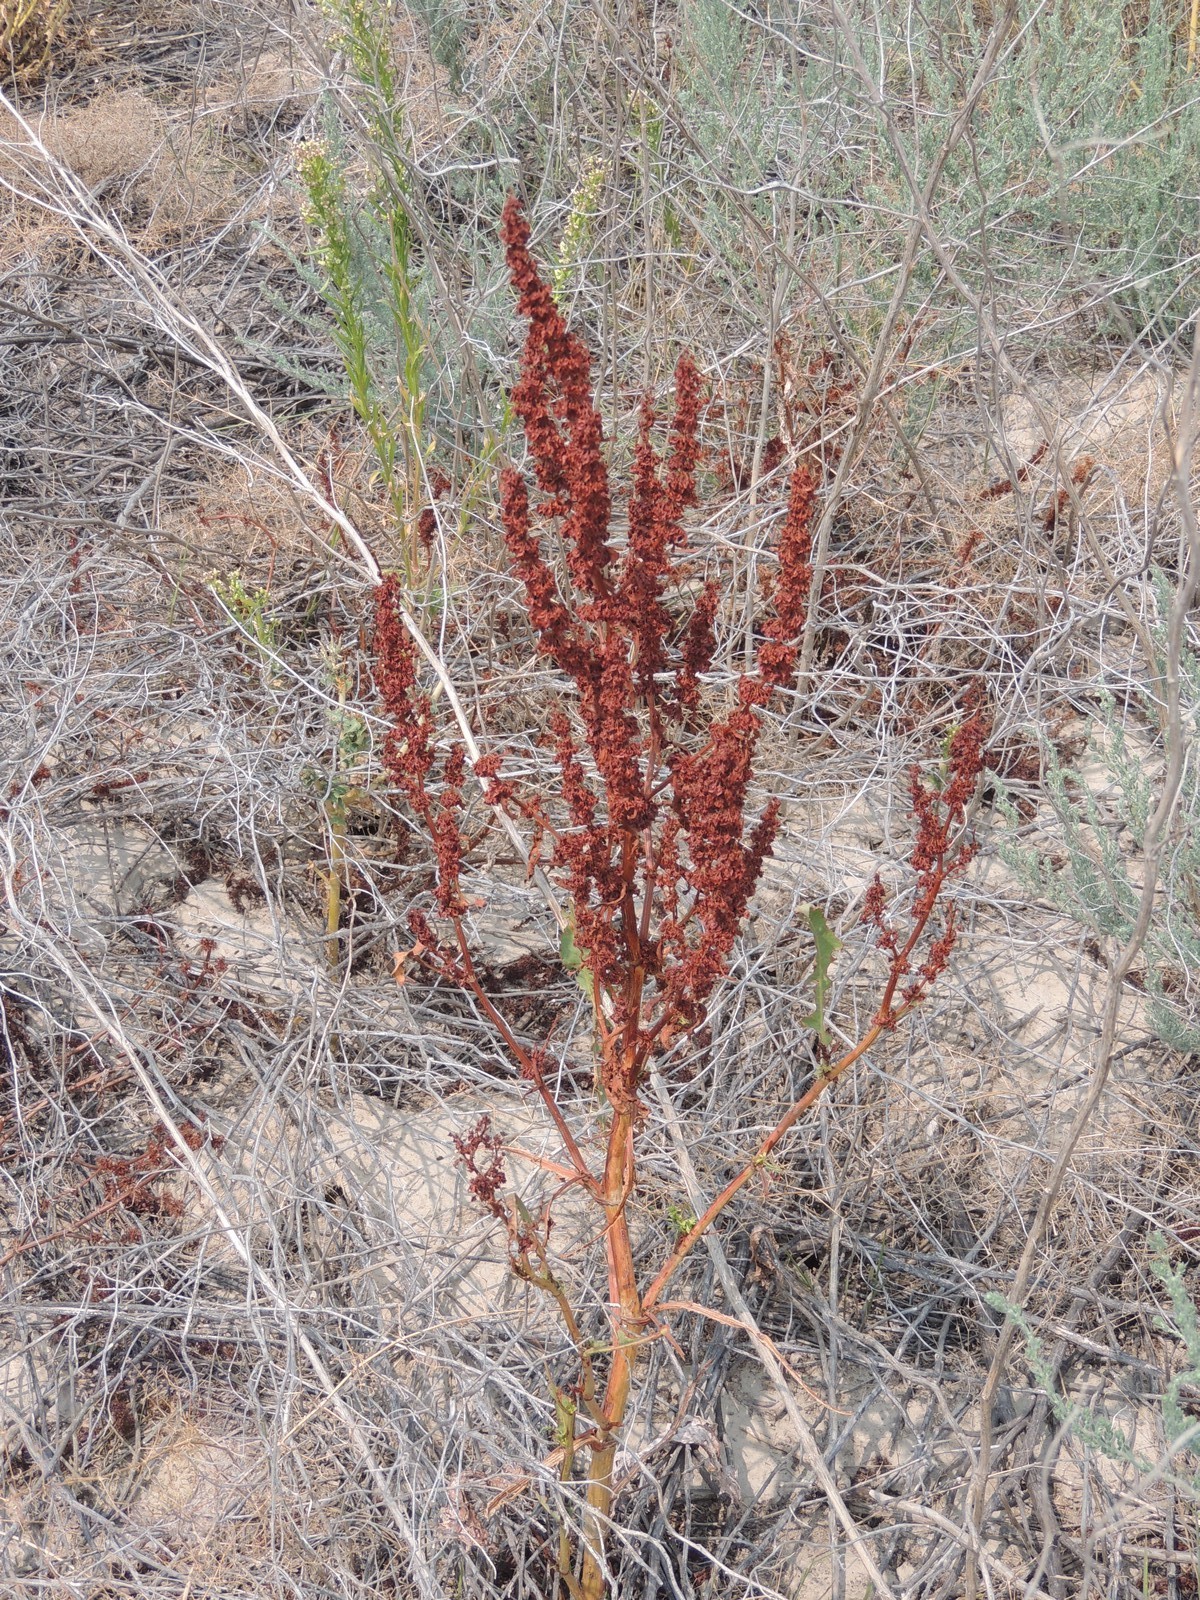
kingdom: Plantae
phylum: Tracheophyta
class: Magnoliopsida
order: Caryophyllales
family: Polygonaceae
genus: Rumex
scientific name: Rumex crispus
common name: Curled dock
